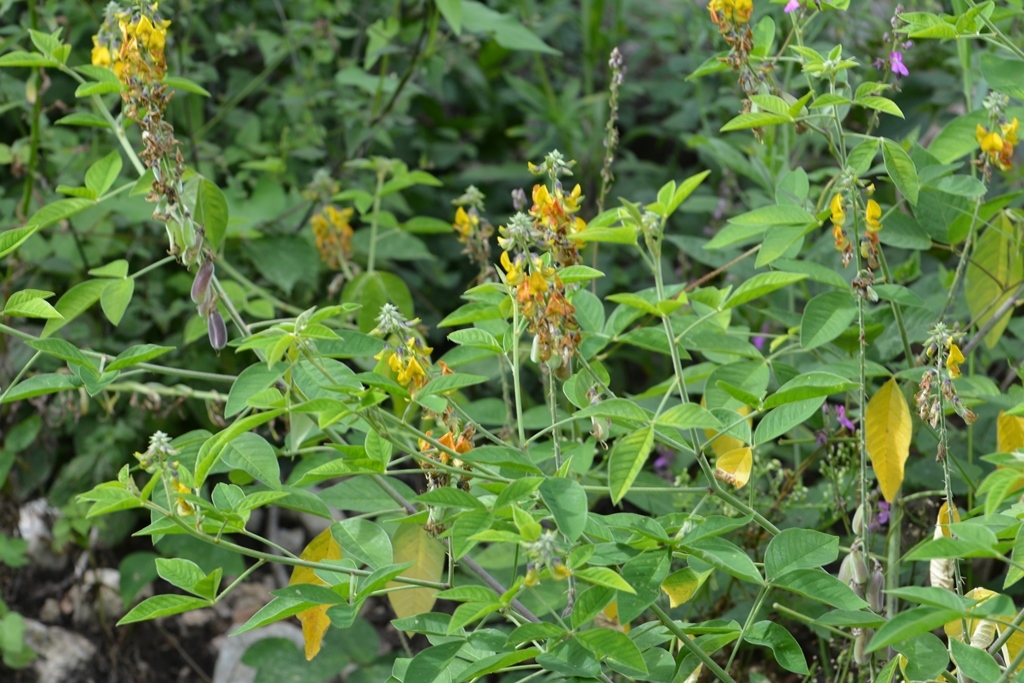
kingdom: Plantae
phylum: Tracheophyta
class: Magnoliopsida
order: Fabales
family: Fabaceae
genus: Crotalaria
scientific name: Crotalaria longirostrata
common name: Longbeak rattlebox
